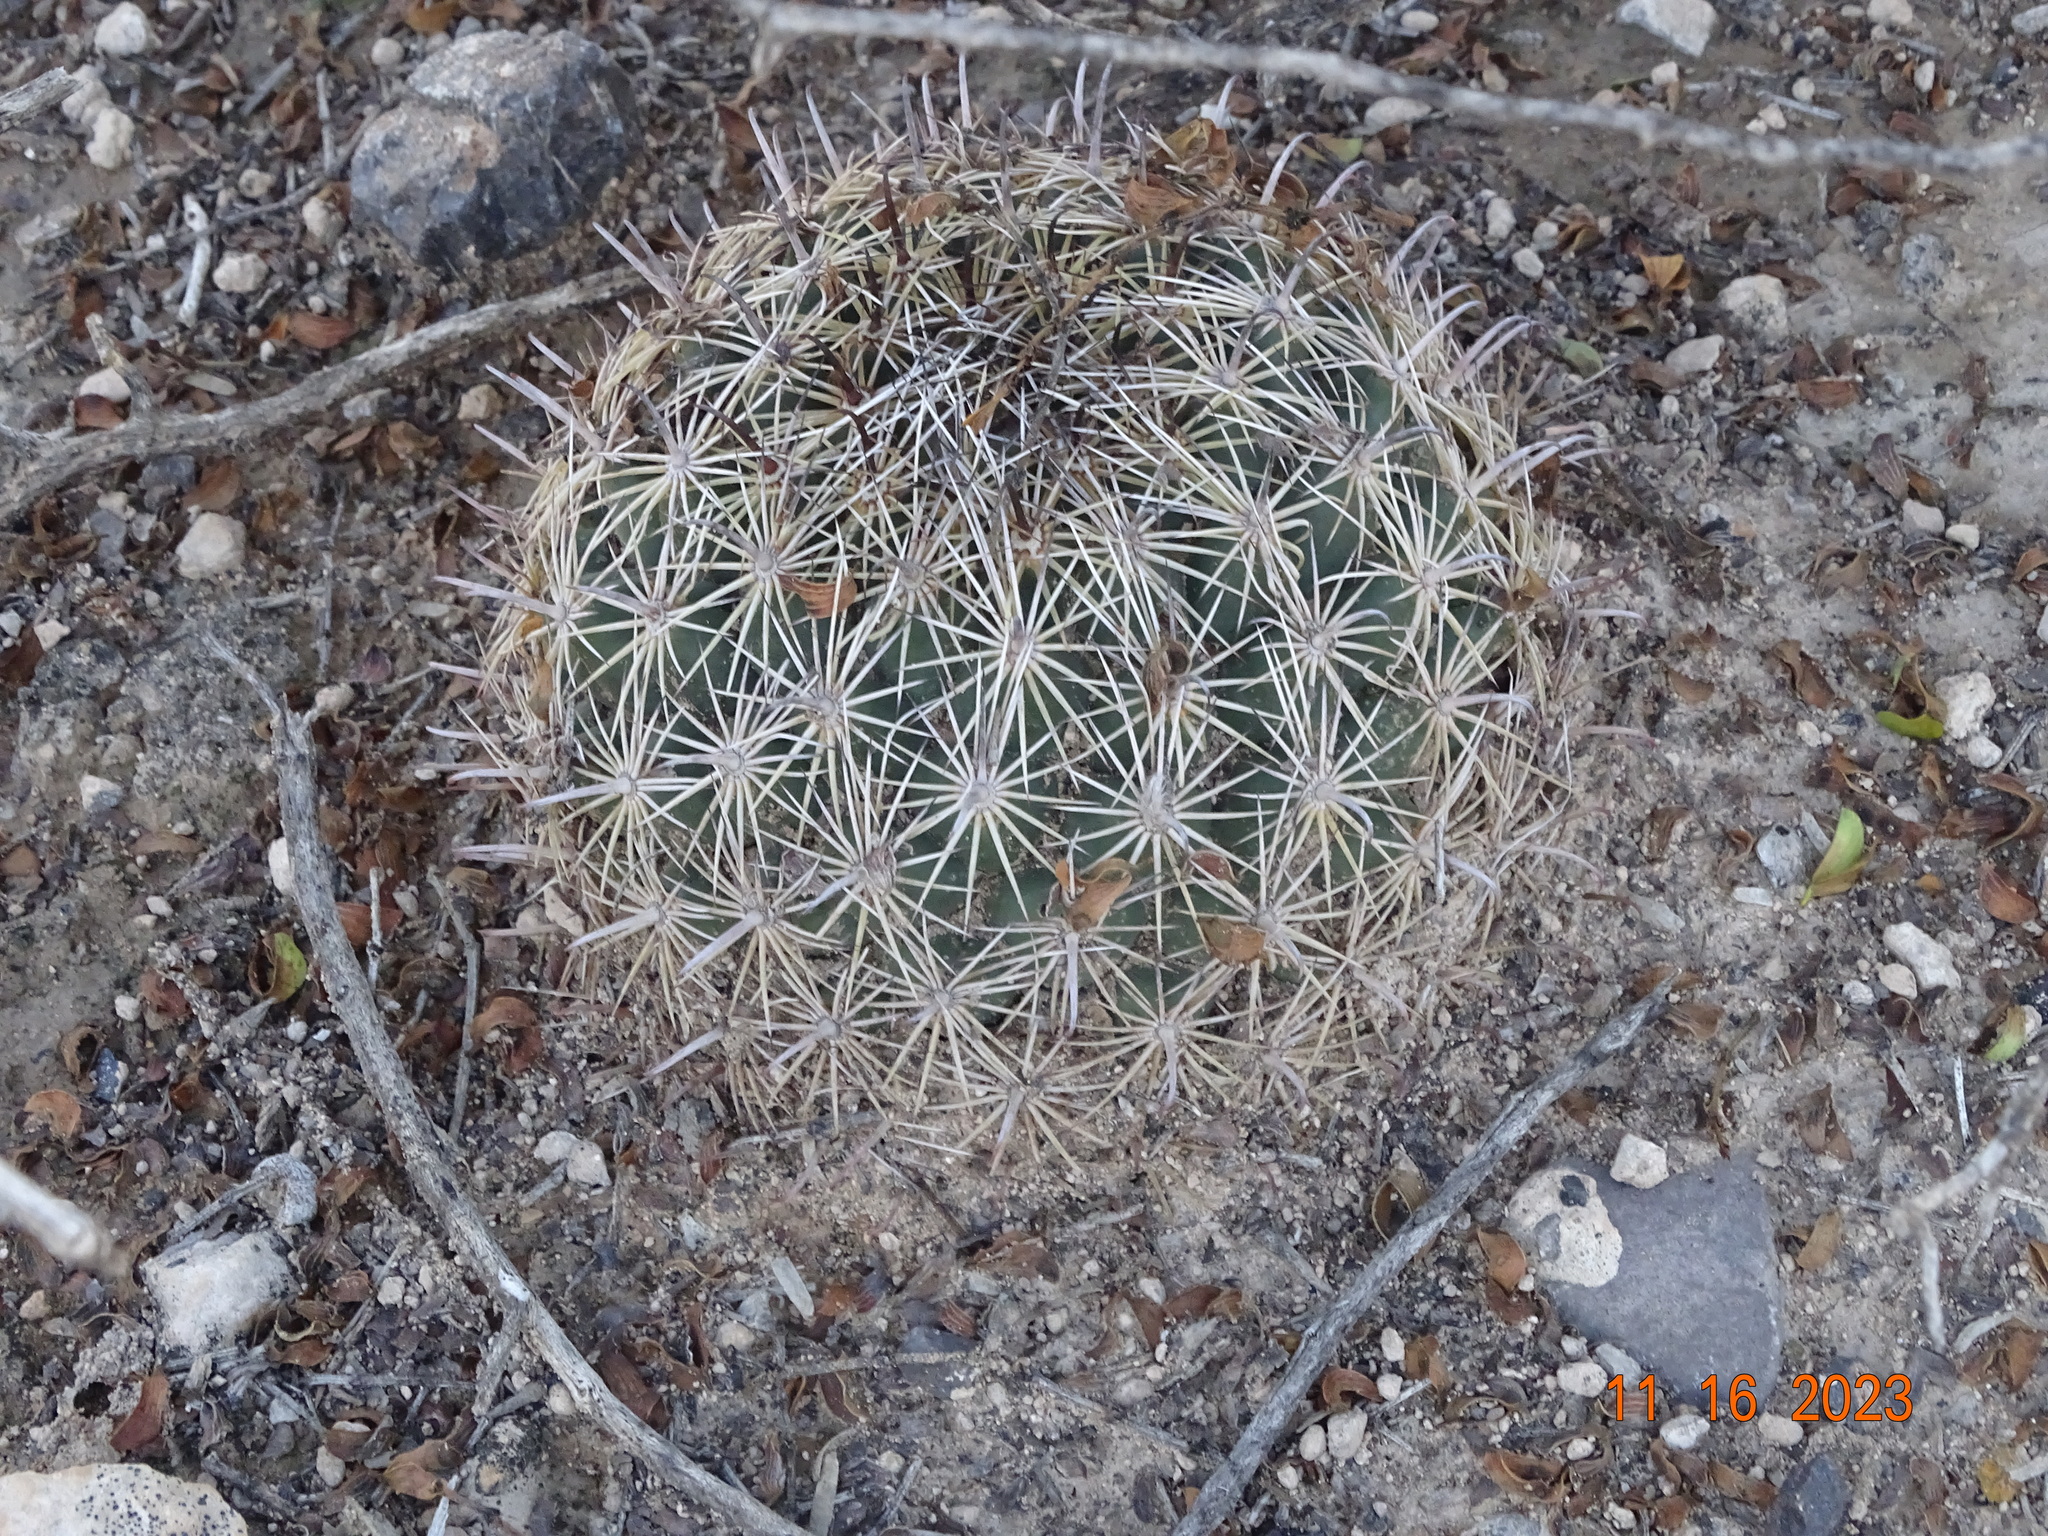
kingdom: Plantae
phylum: Tracheophyta
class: Magnoliopsida
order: Caryophyllales
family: Cactaceae
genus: Coryphantha
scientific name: Coryphantha delicata
